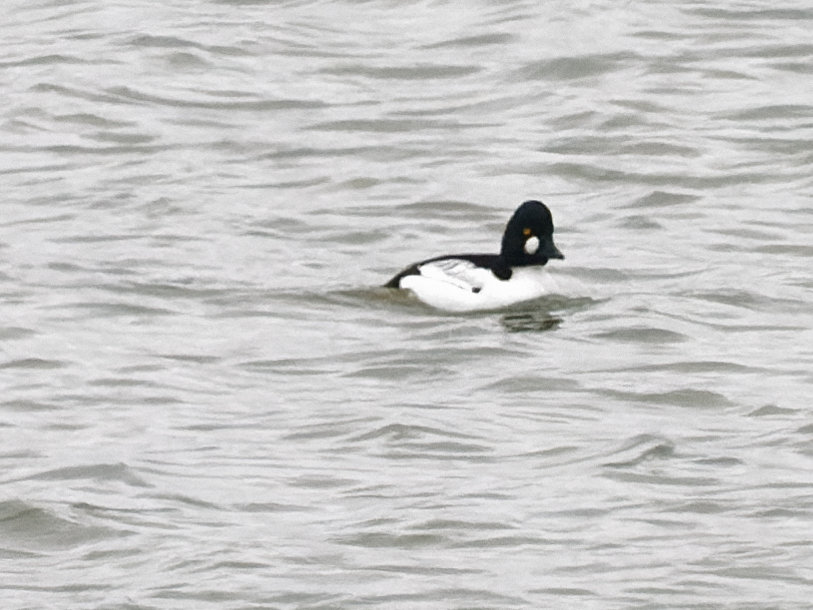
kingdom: Animalia
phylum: Chordata
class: Aves
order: Anseriformes
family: Anatidae
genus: Bucephala
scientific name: Bucephala clangula
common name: Common goldeneye
